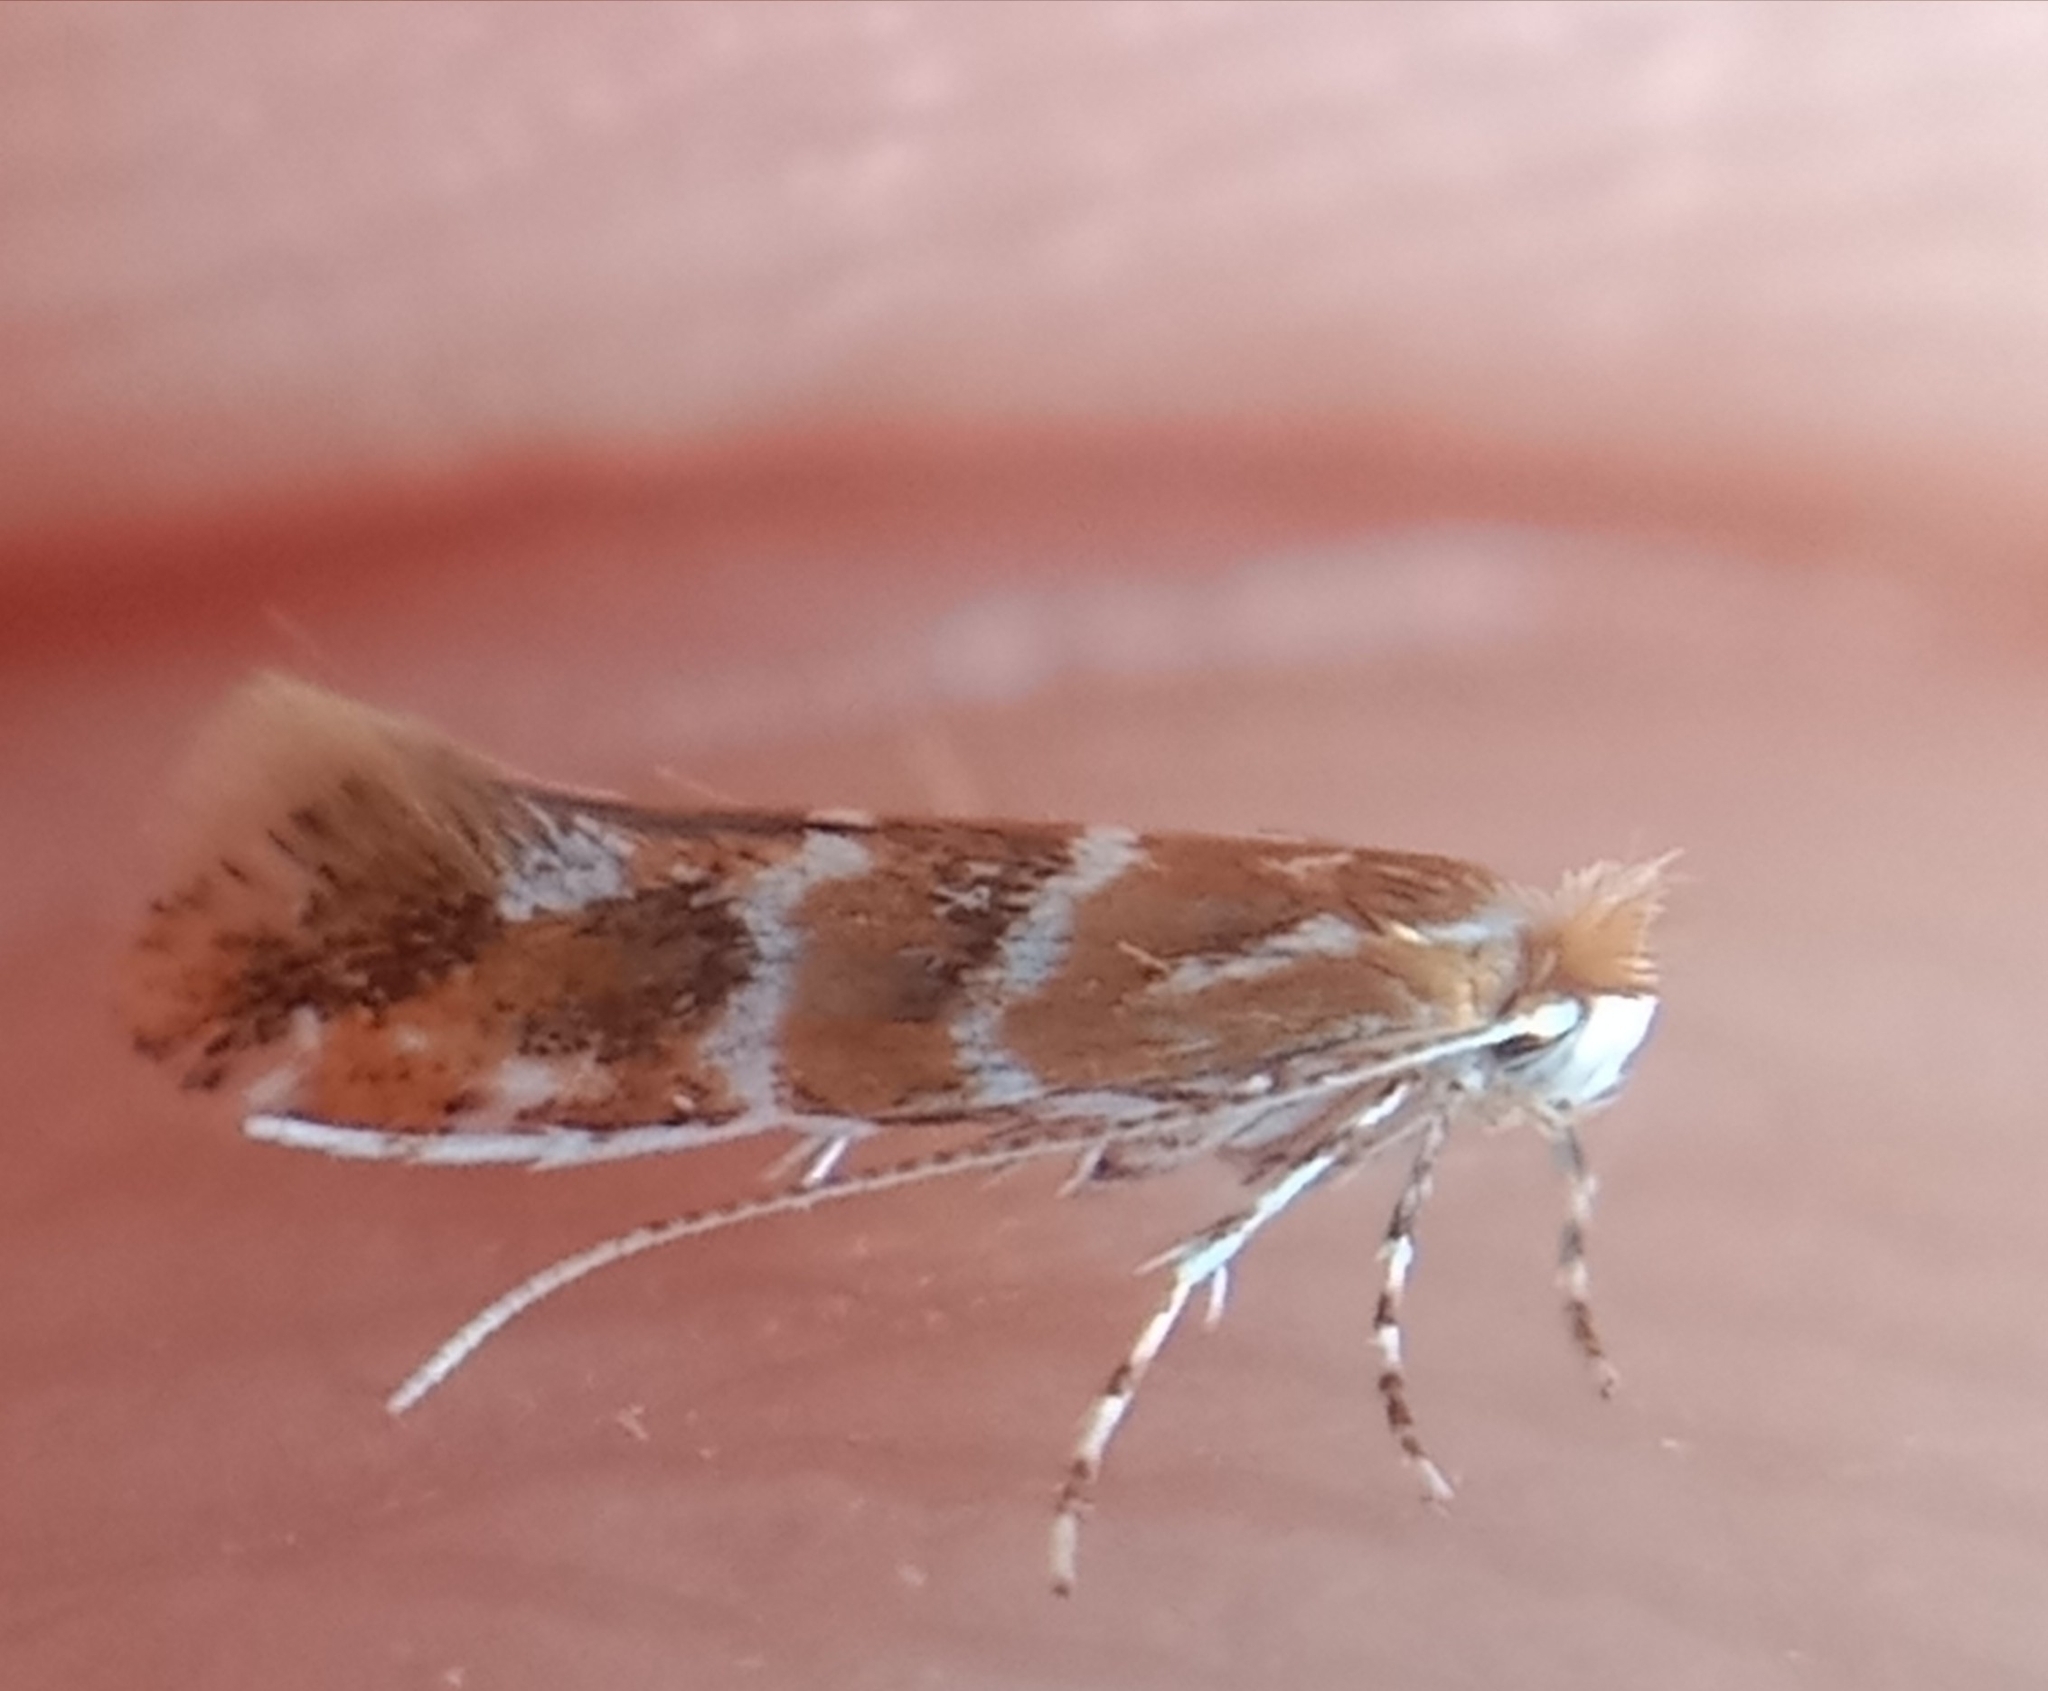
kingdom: Animalia
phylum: Arthropoda
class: Insecta
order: Lepidoptera
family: Gracillariidae
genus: Cameraria
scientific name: Cameraria ohridella
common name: Horse-chestnut leaf-miner
